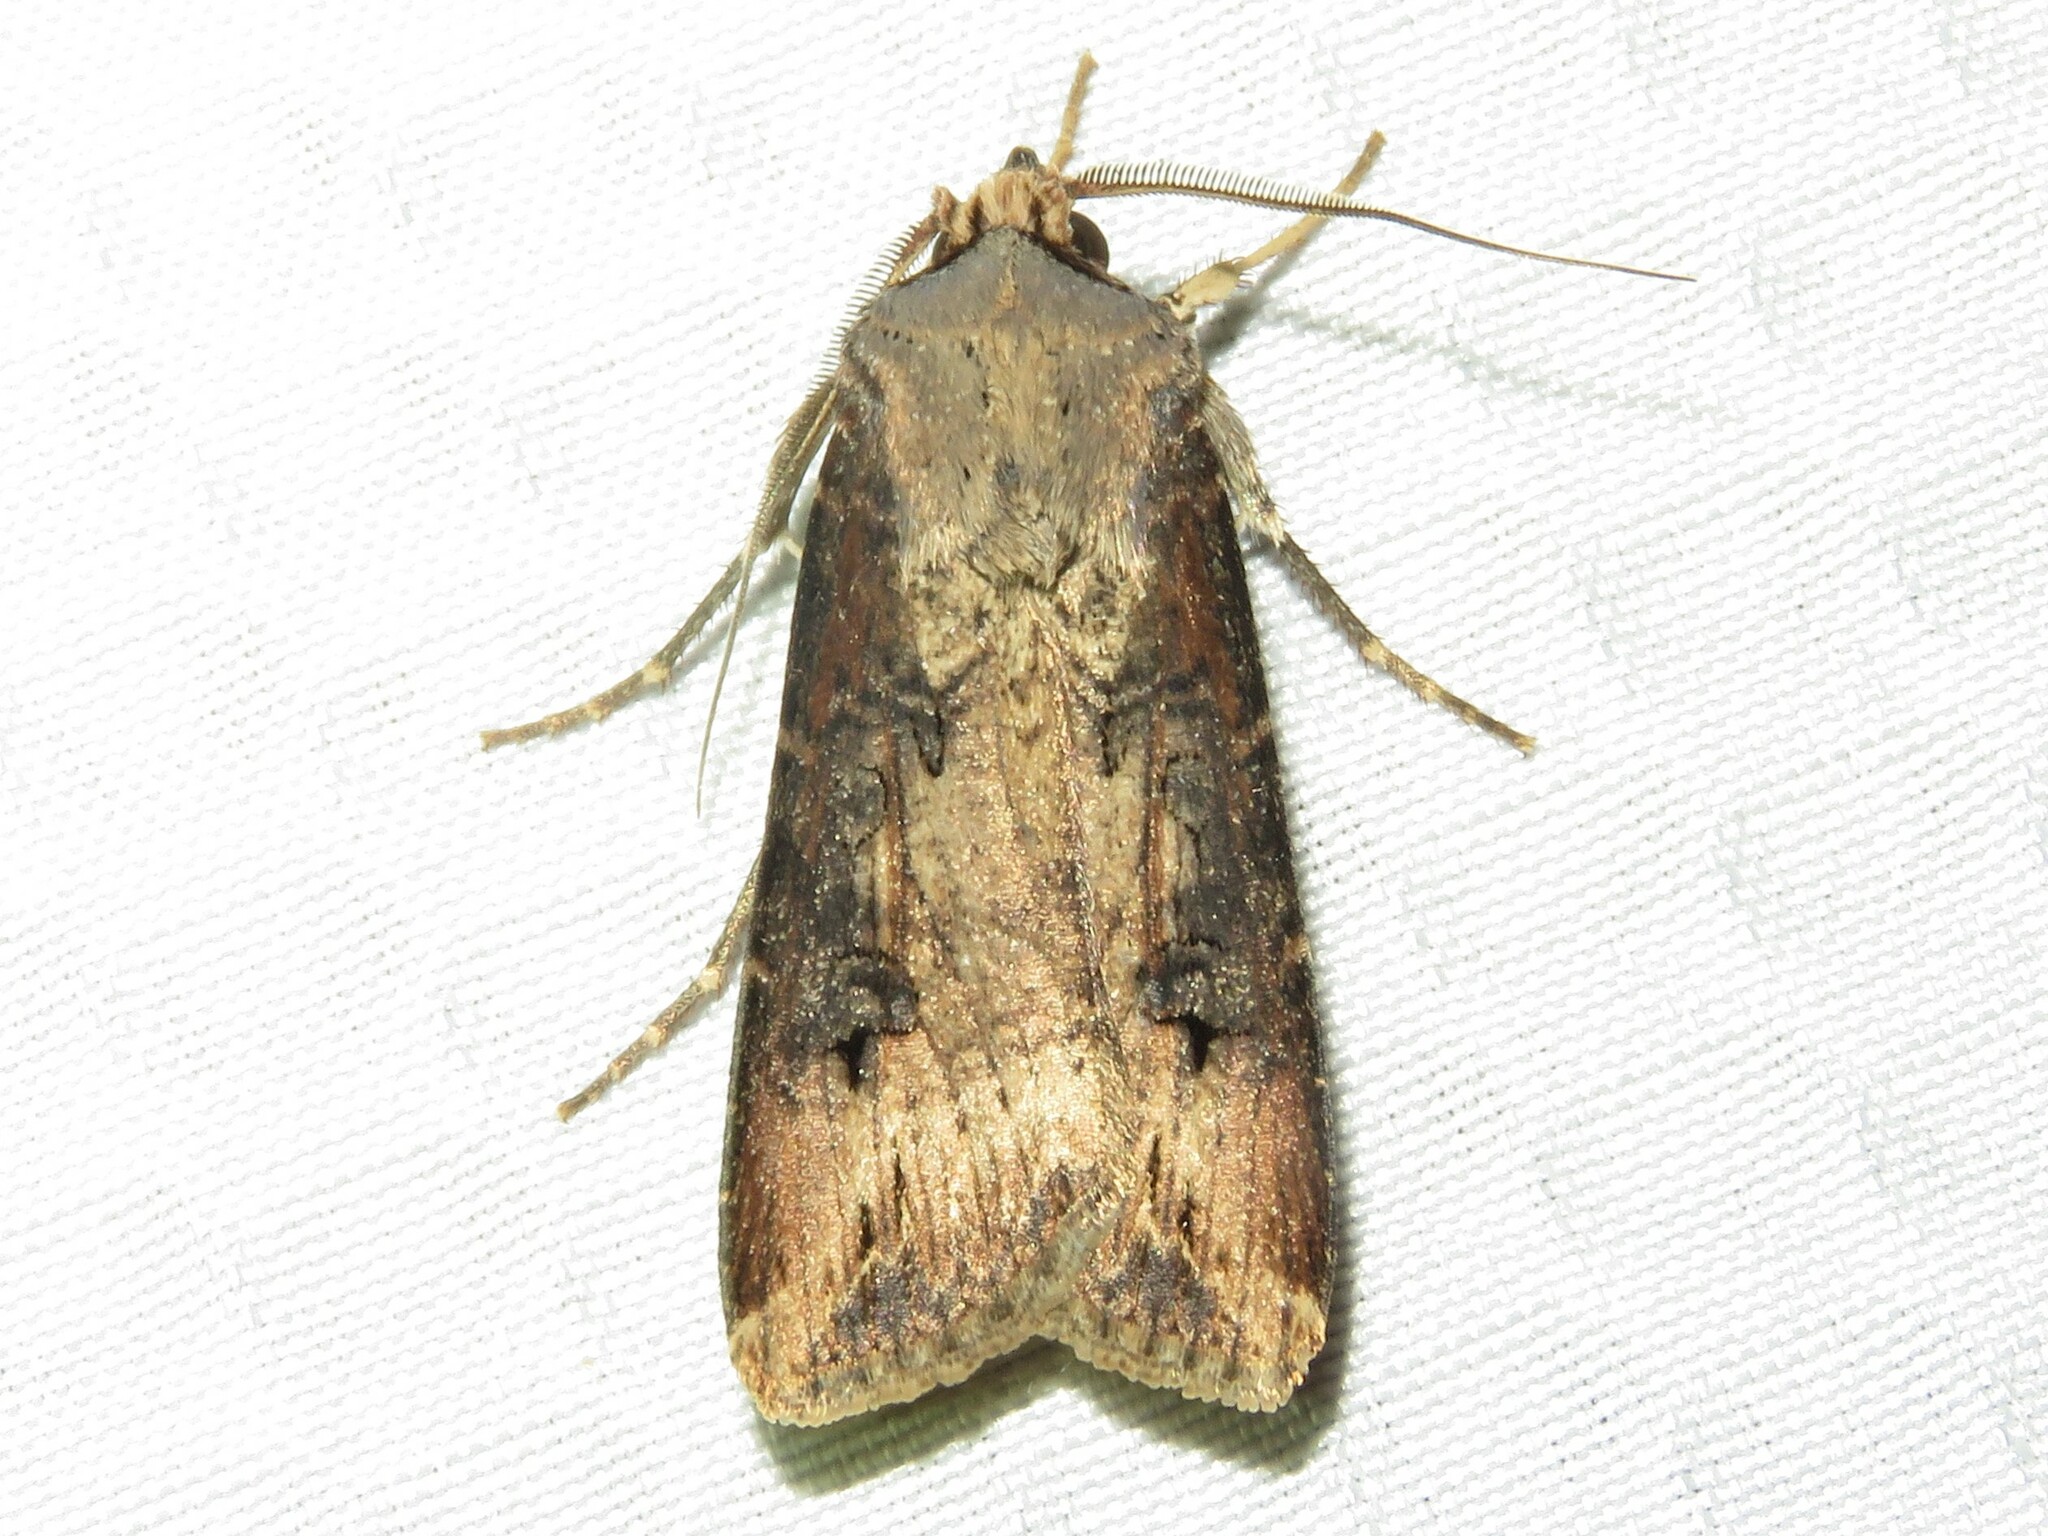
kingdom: Animalia
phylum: Arthropoda
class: Insecta
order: Lepidoptera
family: Noctuidae
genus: Agrotis
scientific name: Agrotis ipsilon
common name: Dark sword-grass
